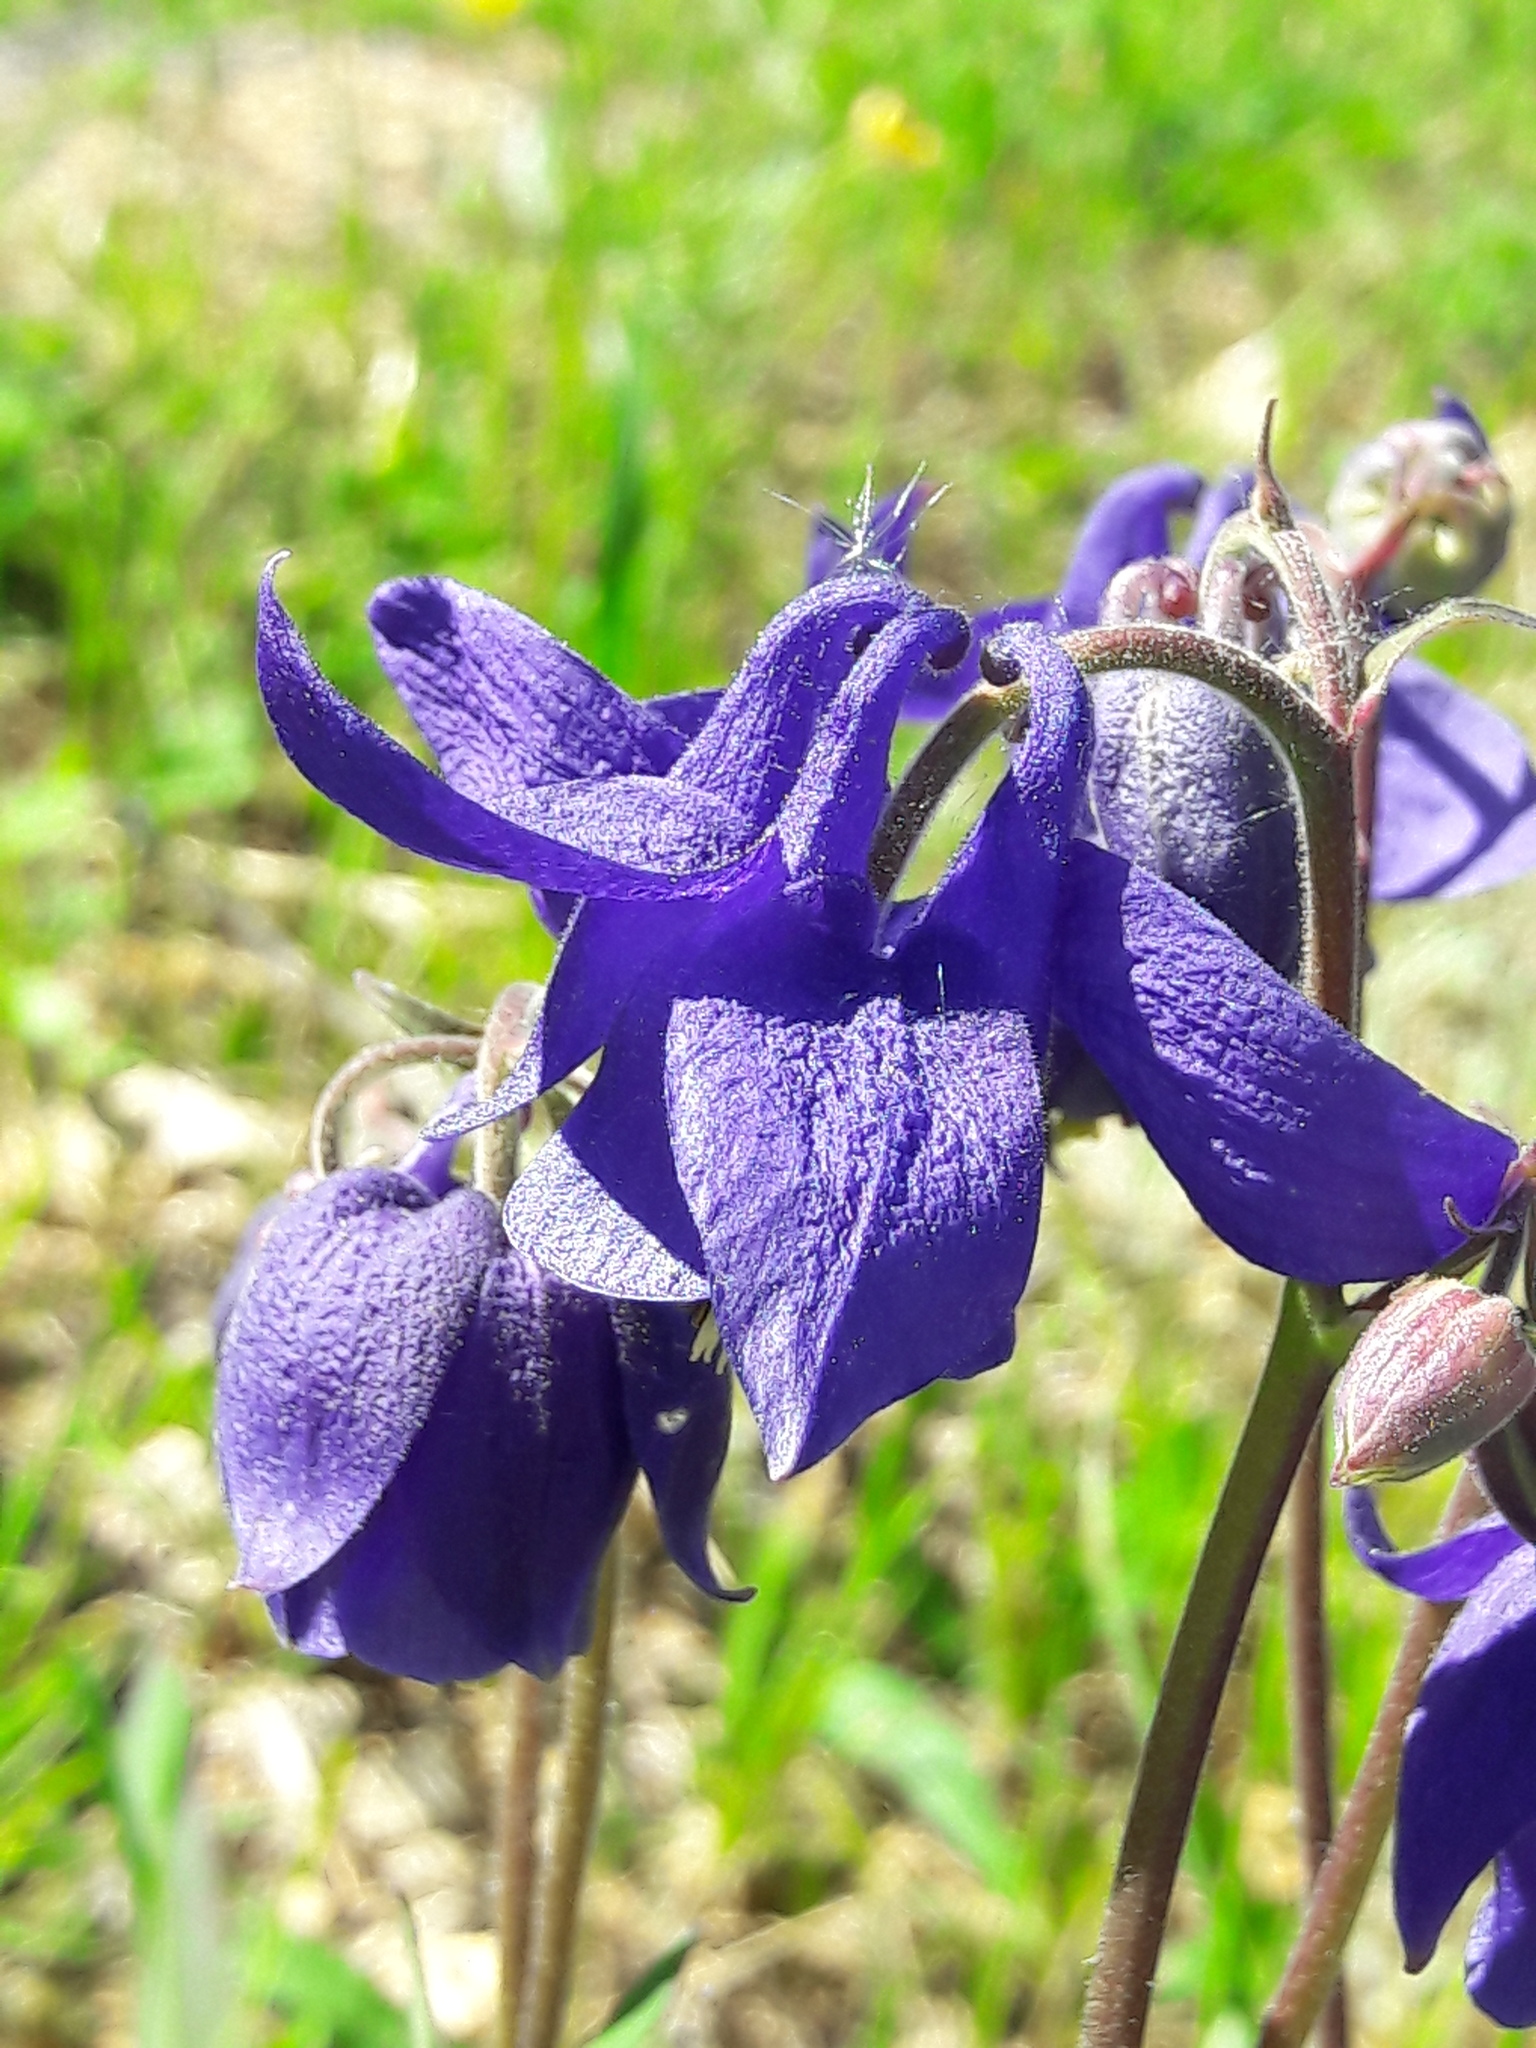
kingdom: Plantae
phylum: Tracheophyta
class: Magnoliopsida
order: Ranunculales
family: Ranunculaceae
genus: Aquilegia
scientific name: Aquilegia vulgaris
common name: Columbine
